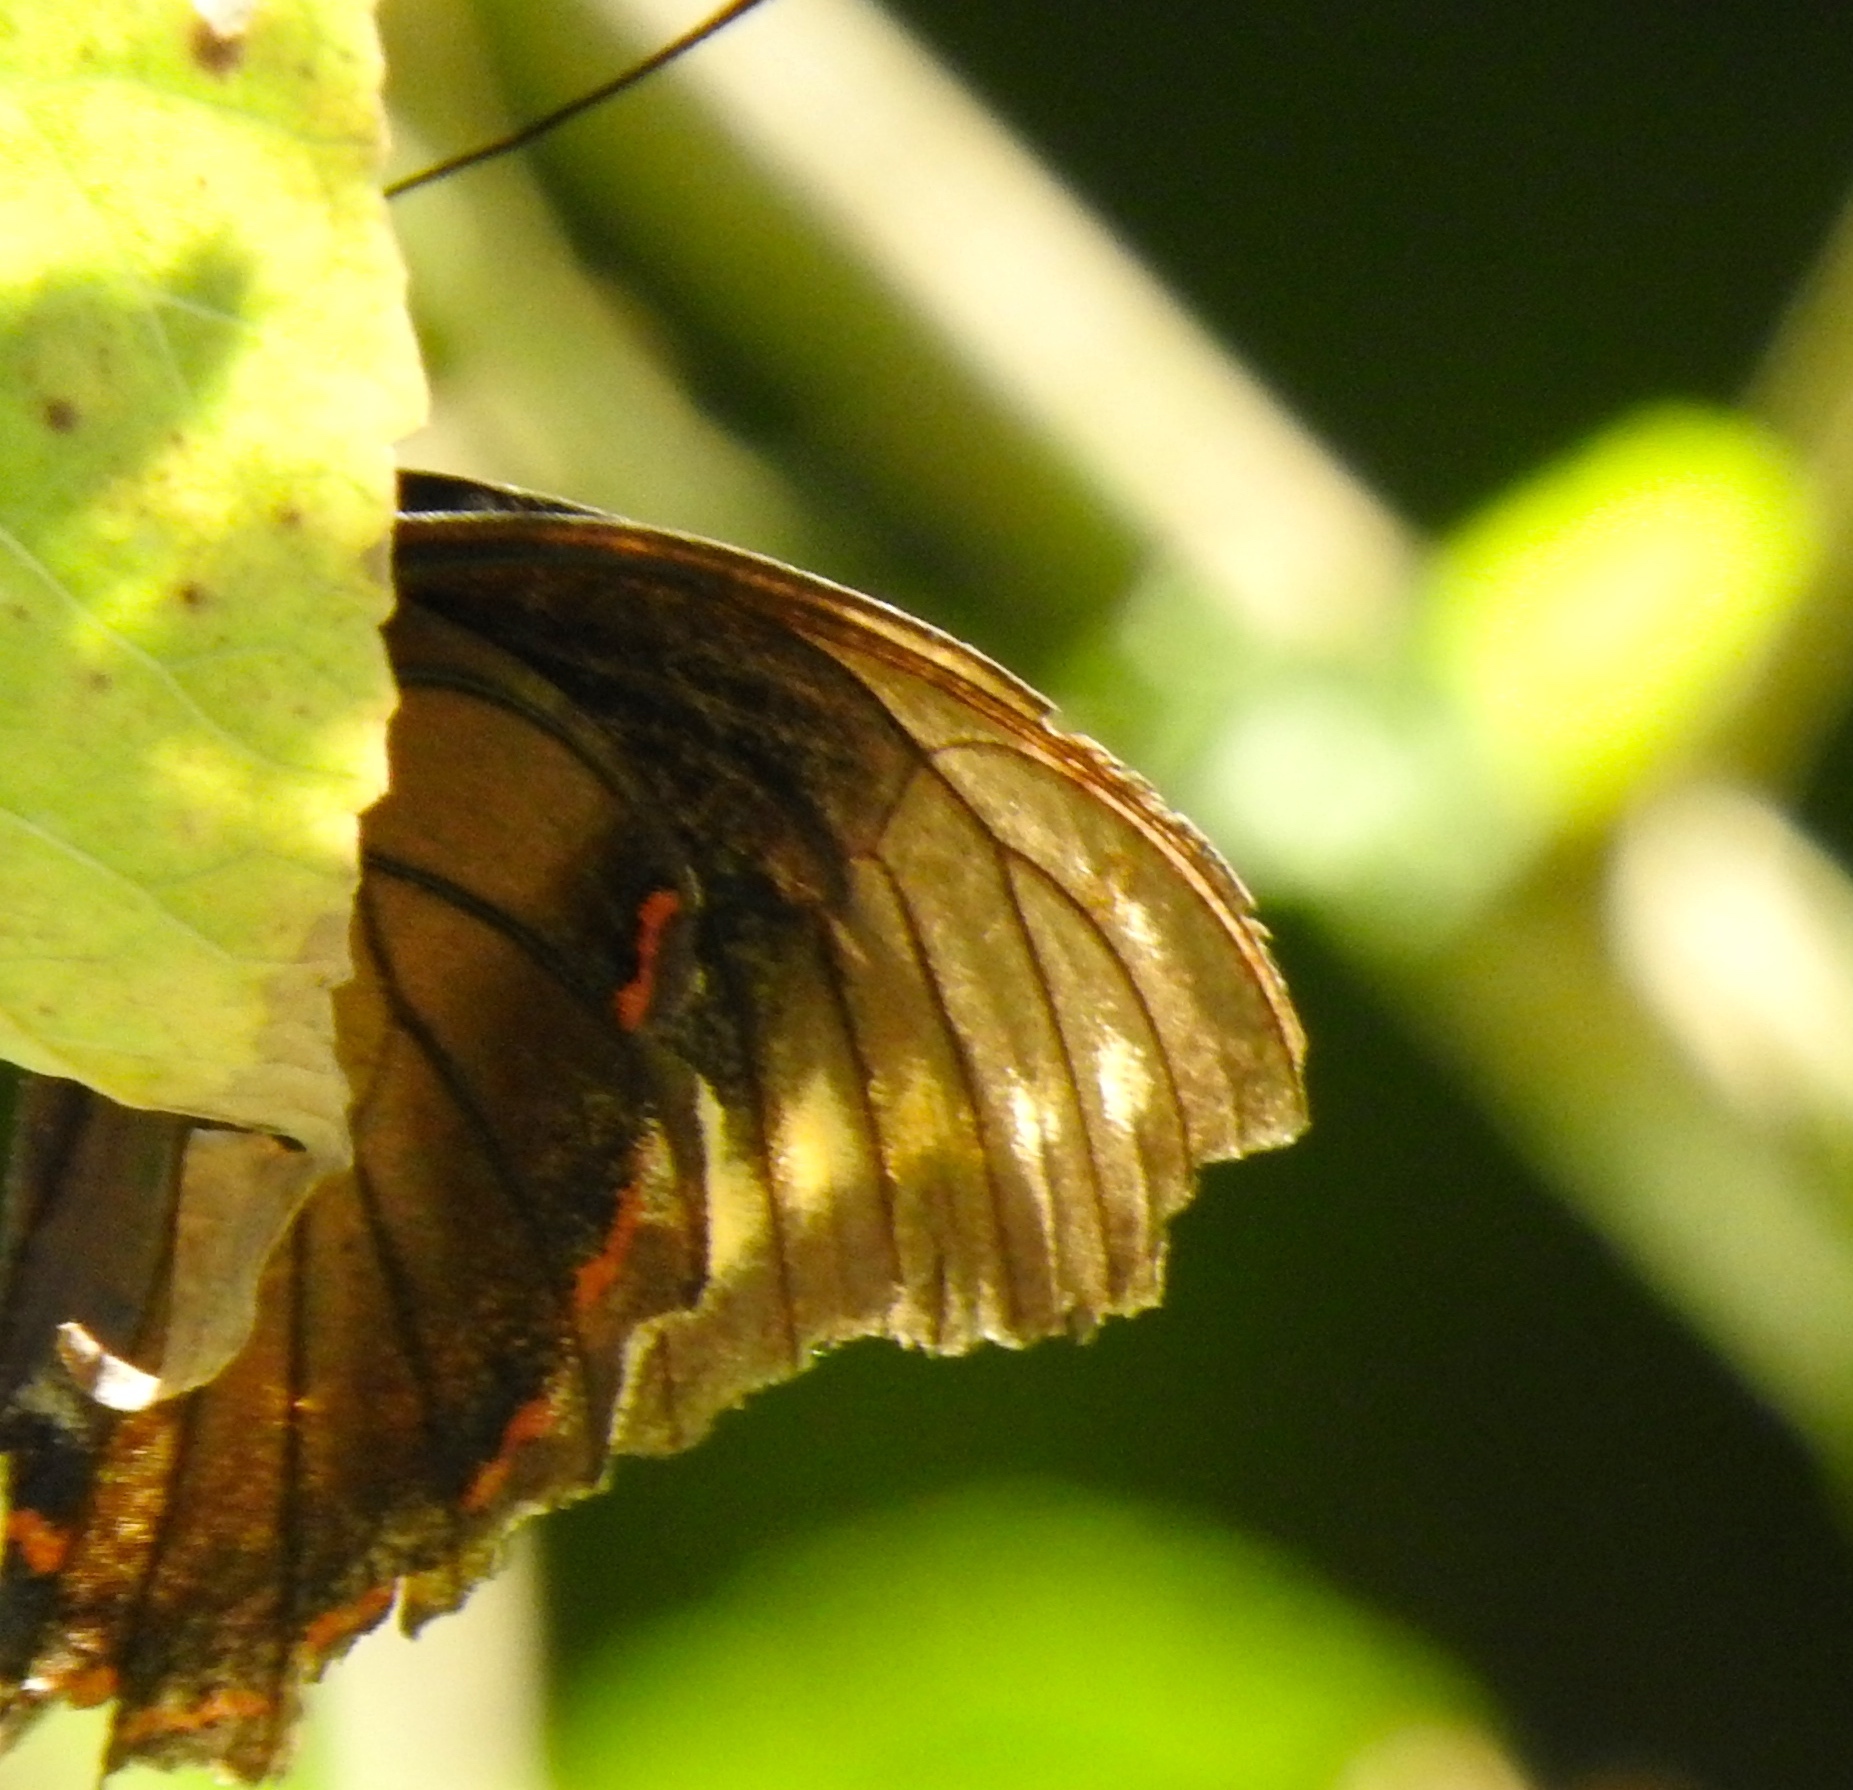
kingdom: Animalia
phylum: Arthropoda
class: Insecta
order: Lepidoptera
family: Papilionidae
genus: Battus
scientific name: Battus polydamas
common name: Polydamas swallowtail
